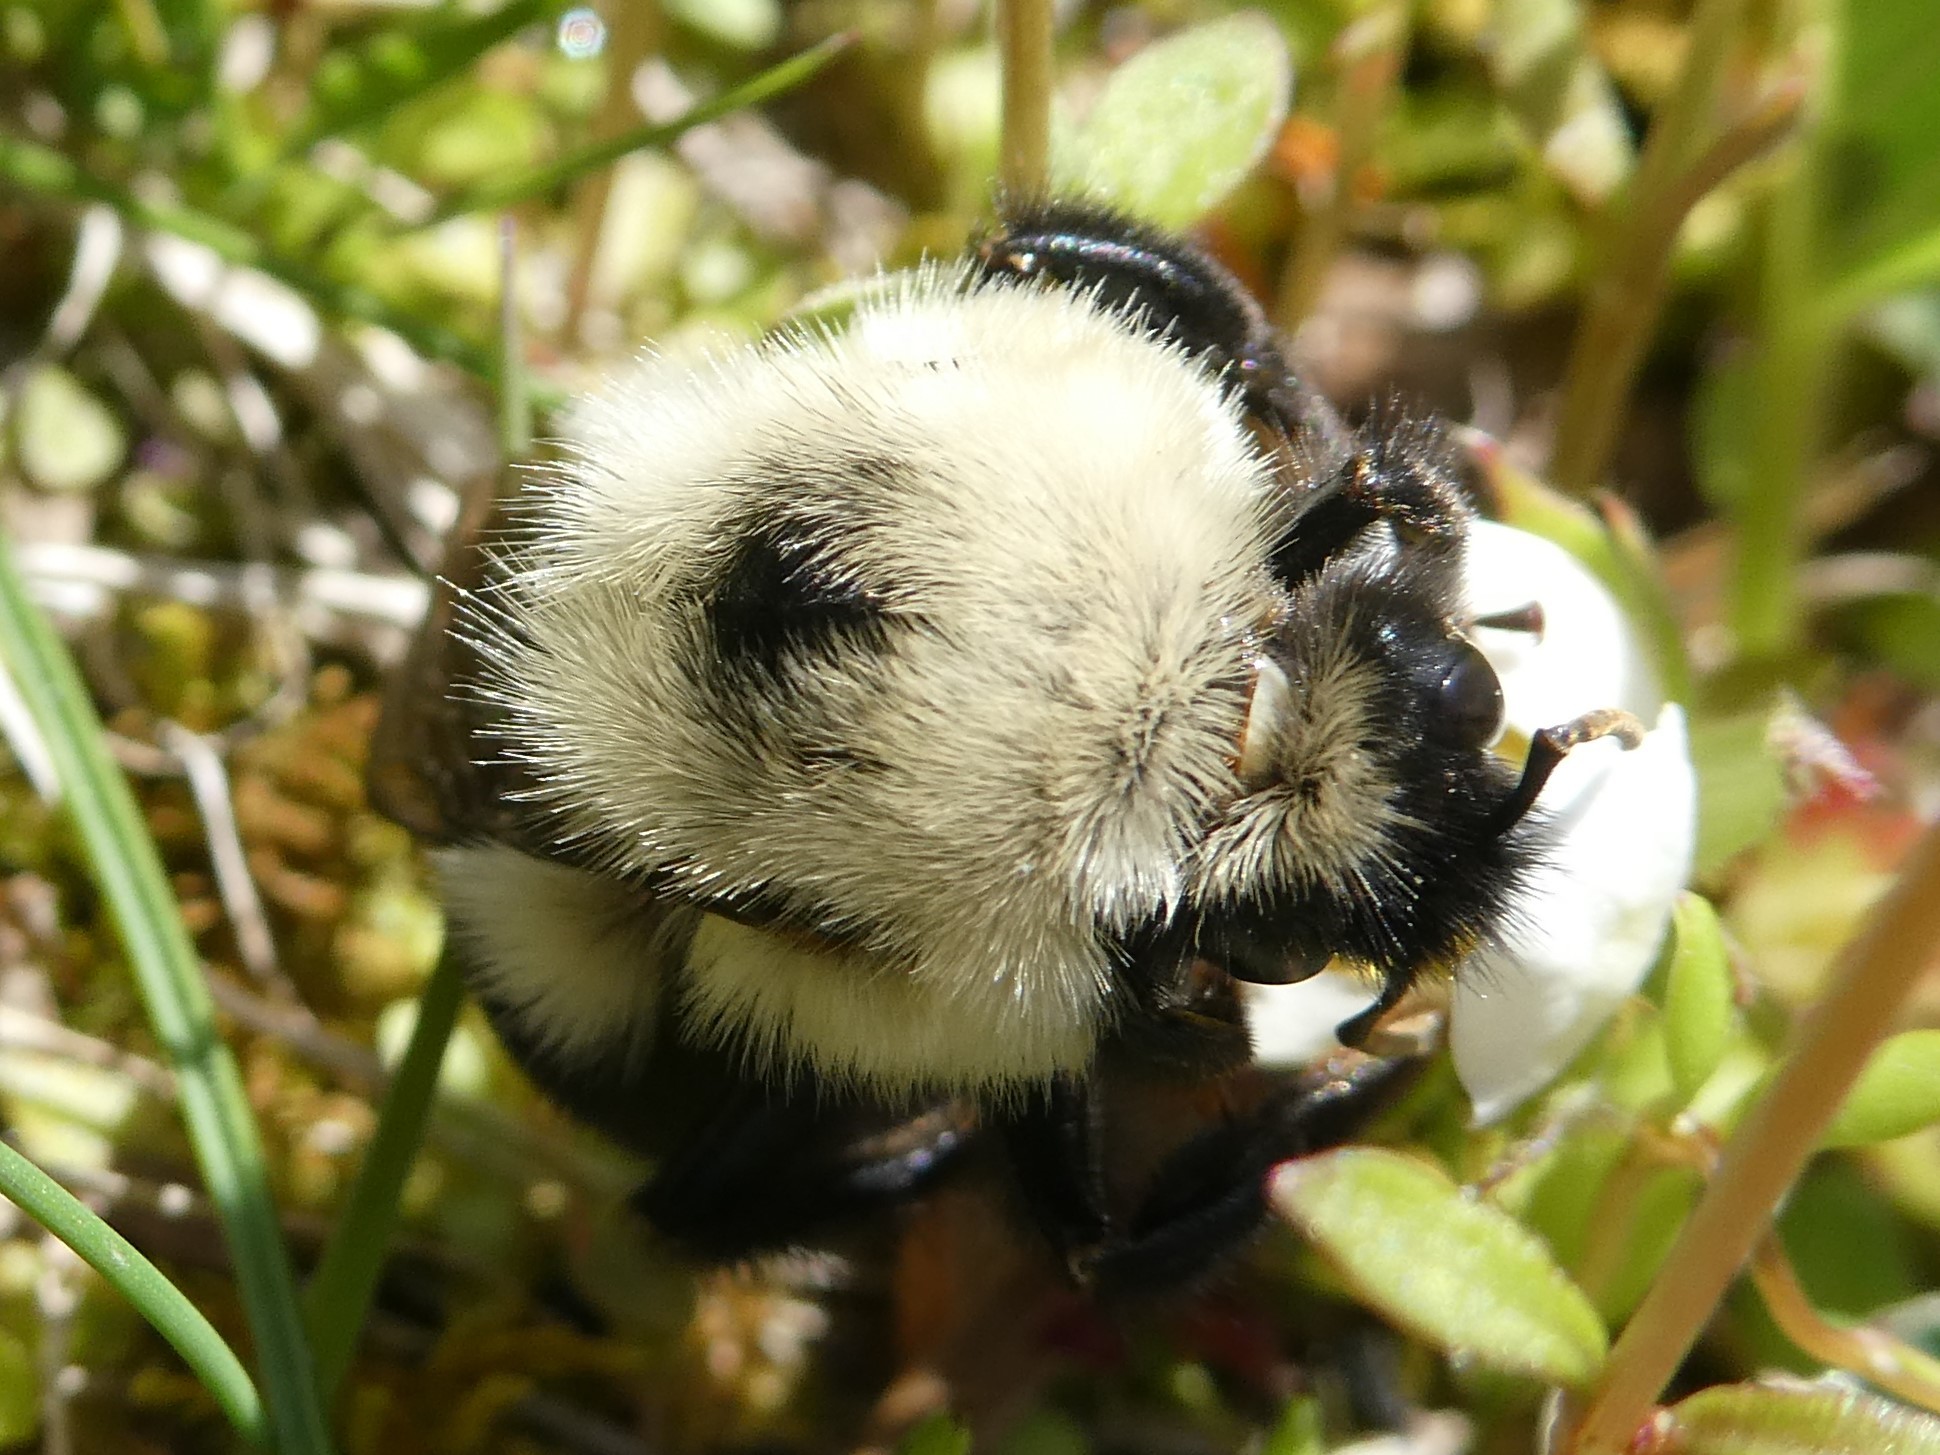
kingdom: Animalia
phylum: Arthropoda
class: Insecta
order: Hymenoptera
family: Apidae
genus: Bombus
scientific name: Bombus bimaculatus
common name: Two-spotted bumble bee
